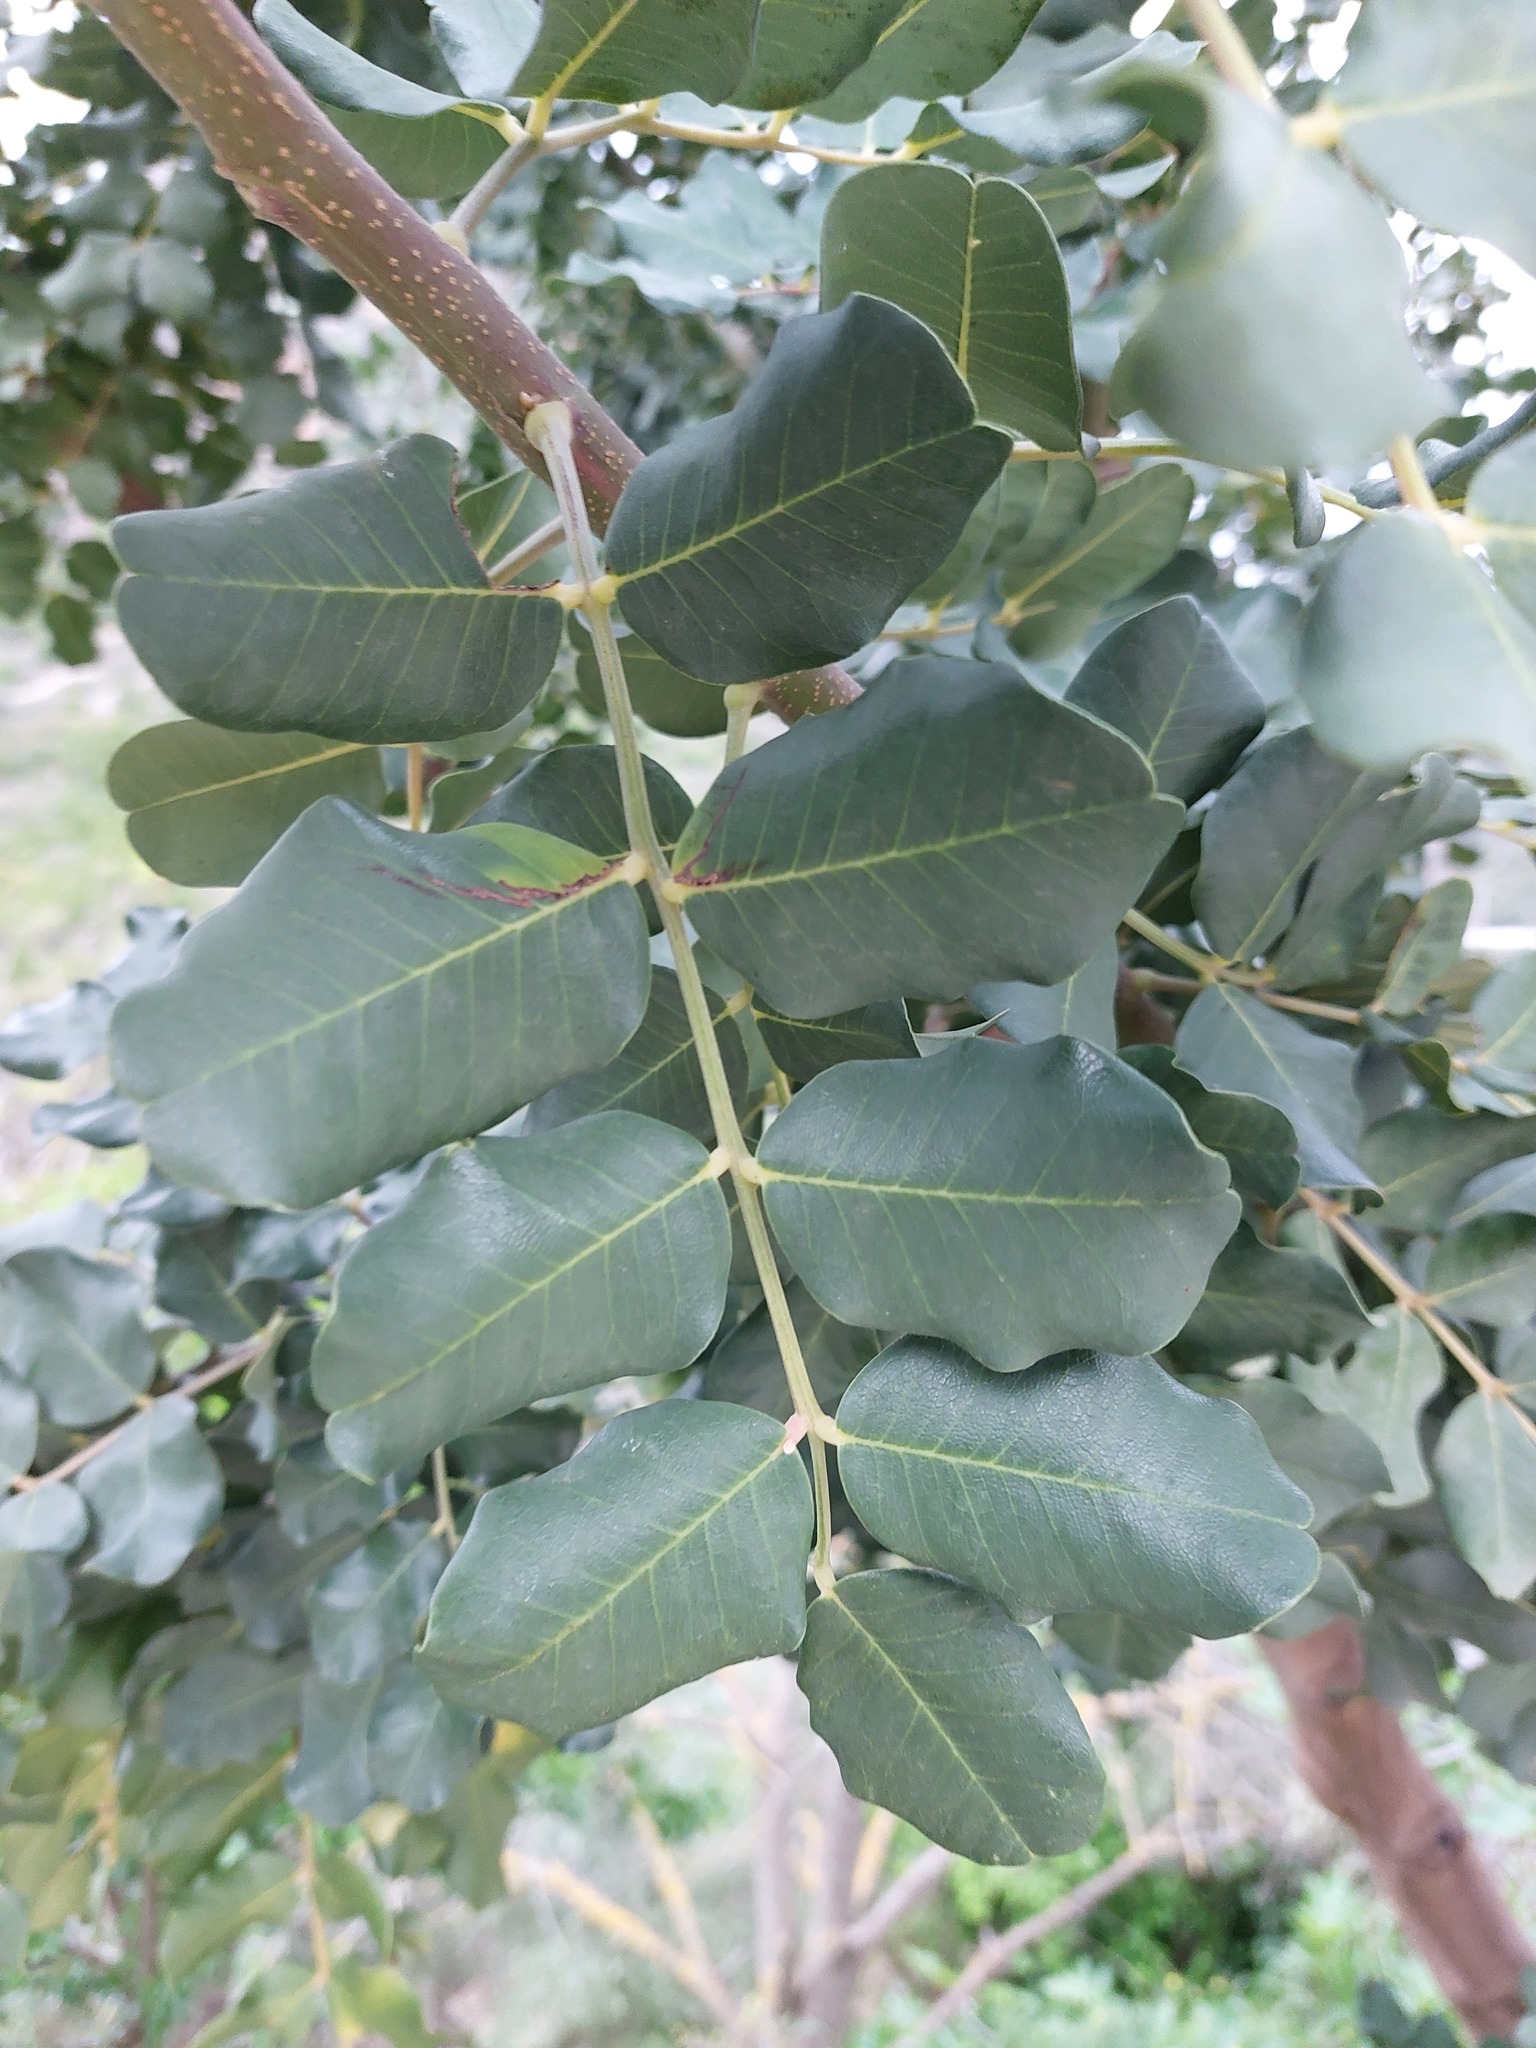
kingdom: Plantae
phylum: Tracheophyta
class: Magnoliopsida
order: Fabales
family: Fabaceae
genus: Ceratonia
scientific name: Ceratonia siliqua
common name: Carob
